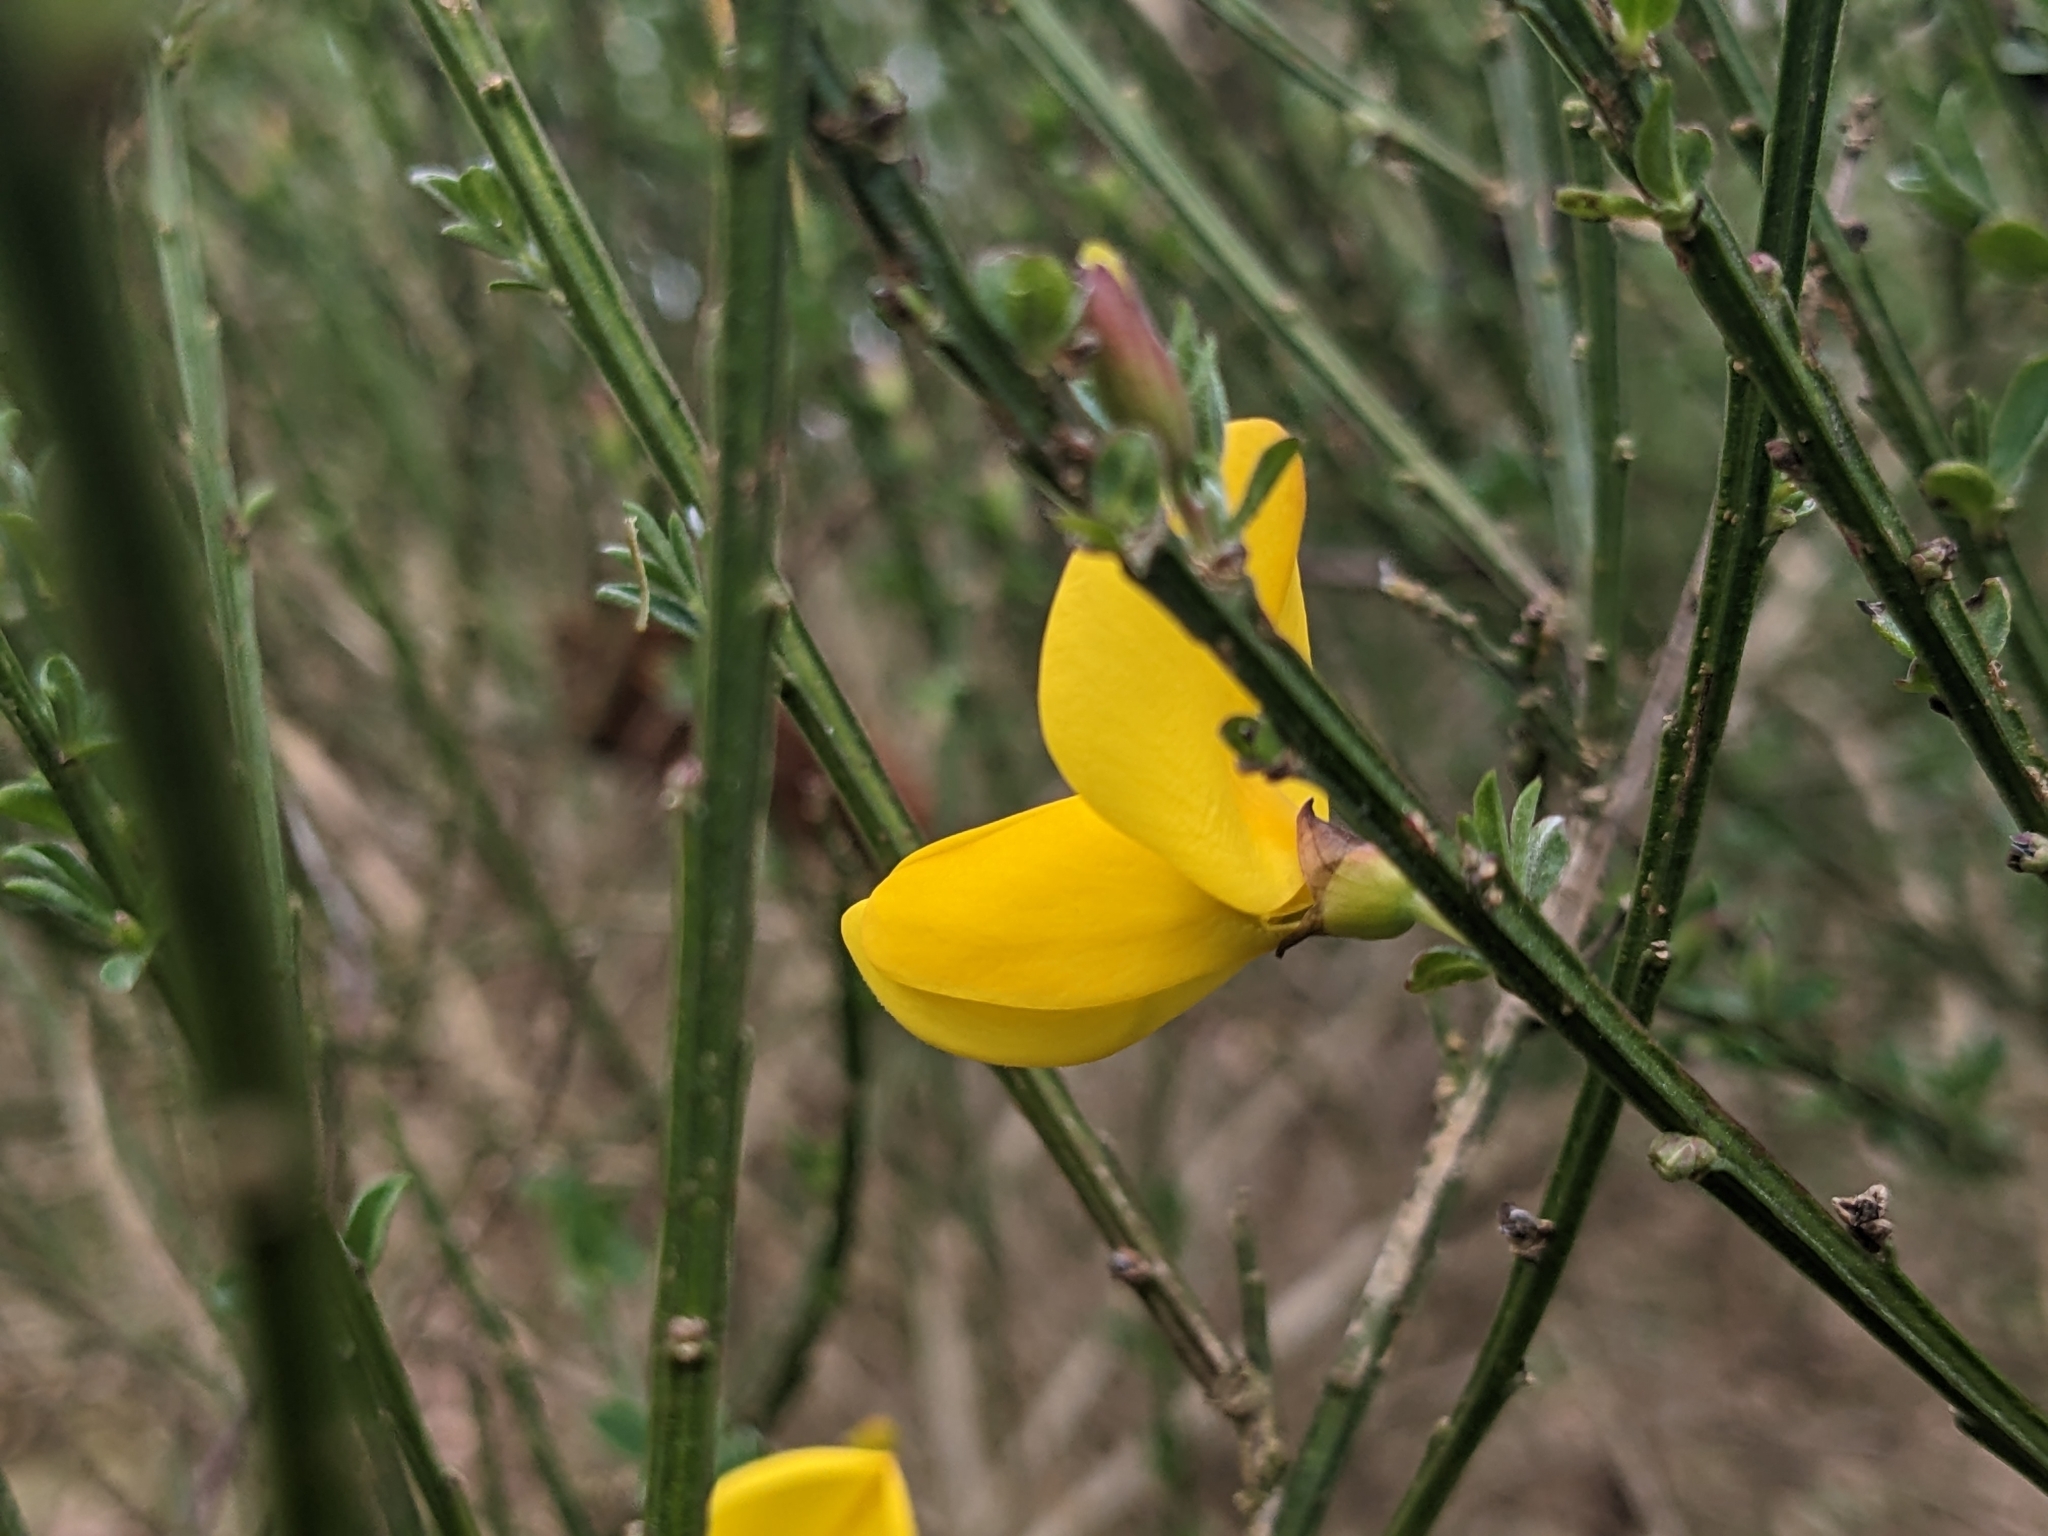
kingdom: Plantae
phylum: Tracheophyta
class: Magnoliopsida
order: Fabales
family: Fabaceae
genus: Cytisus
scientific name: Cytisus scoparius
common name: Scotch broom
